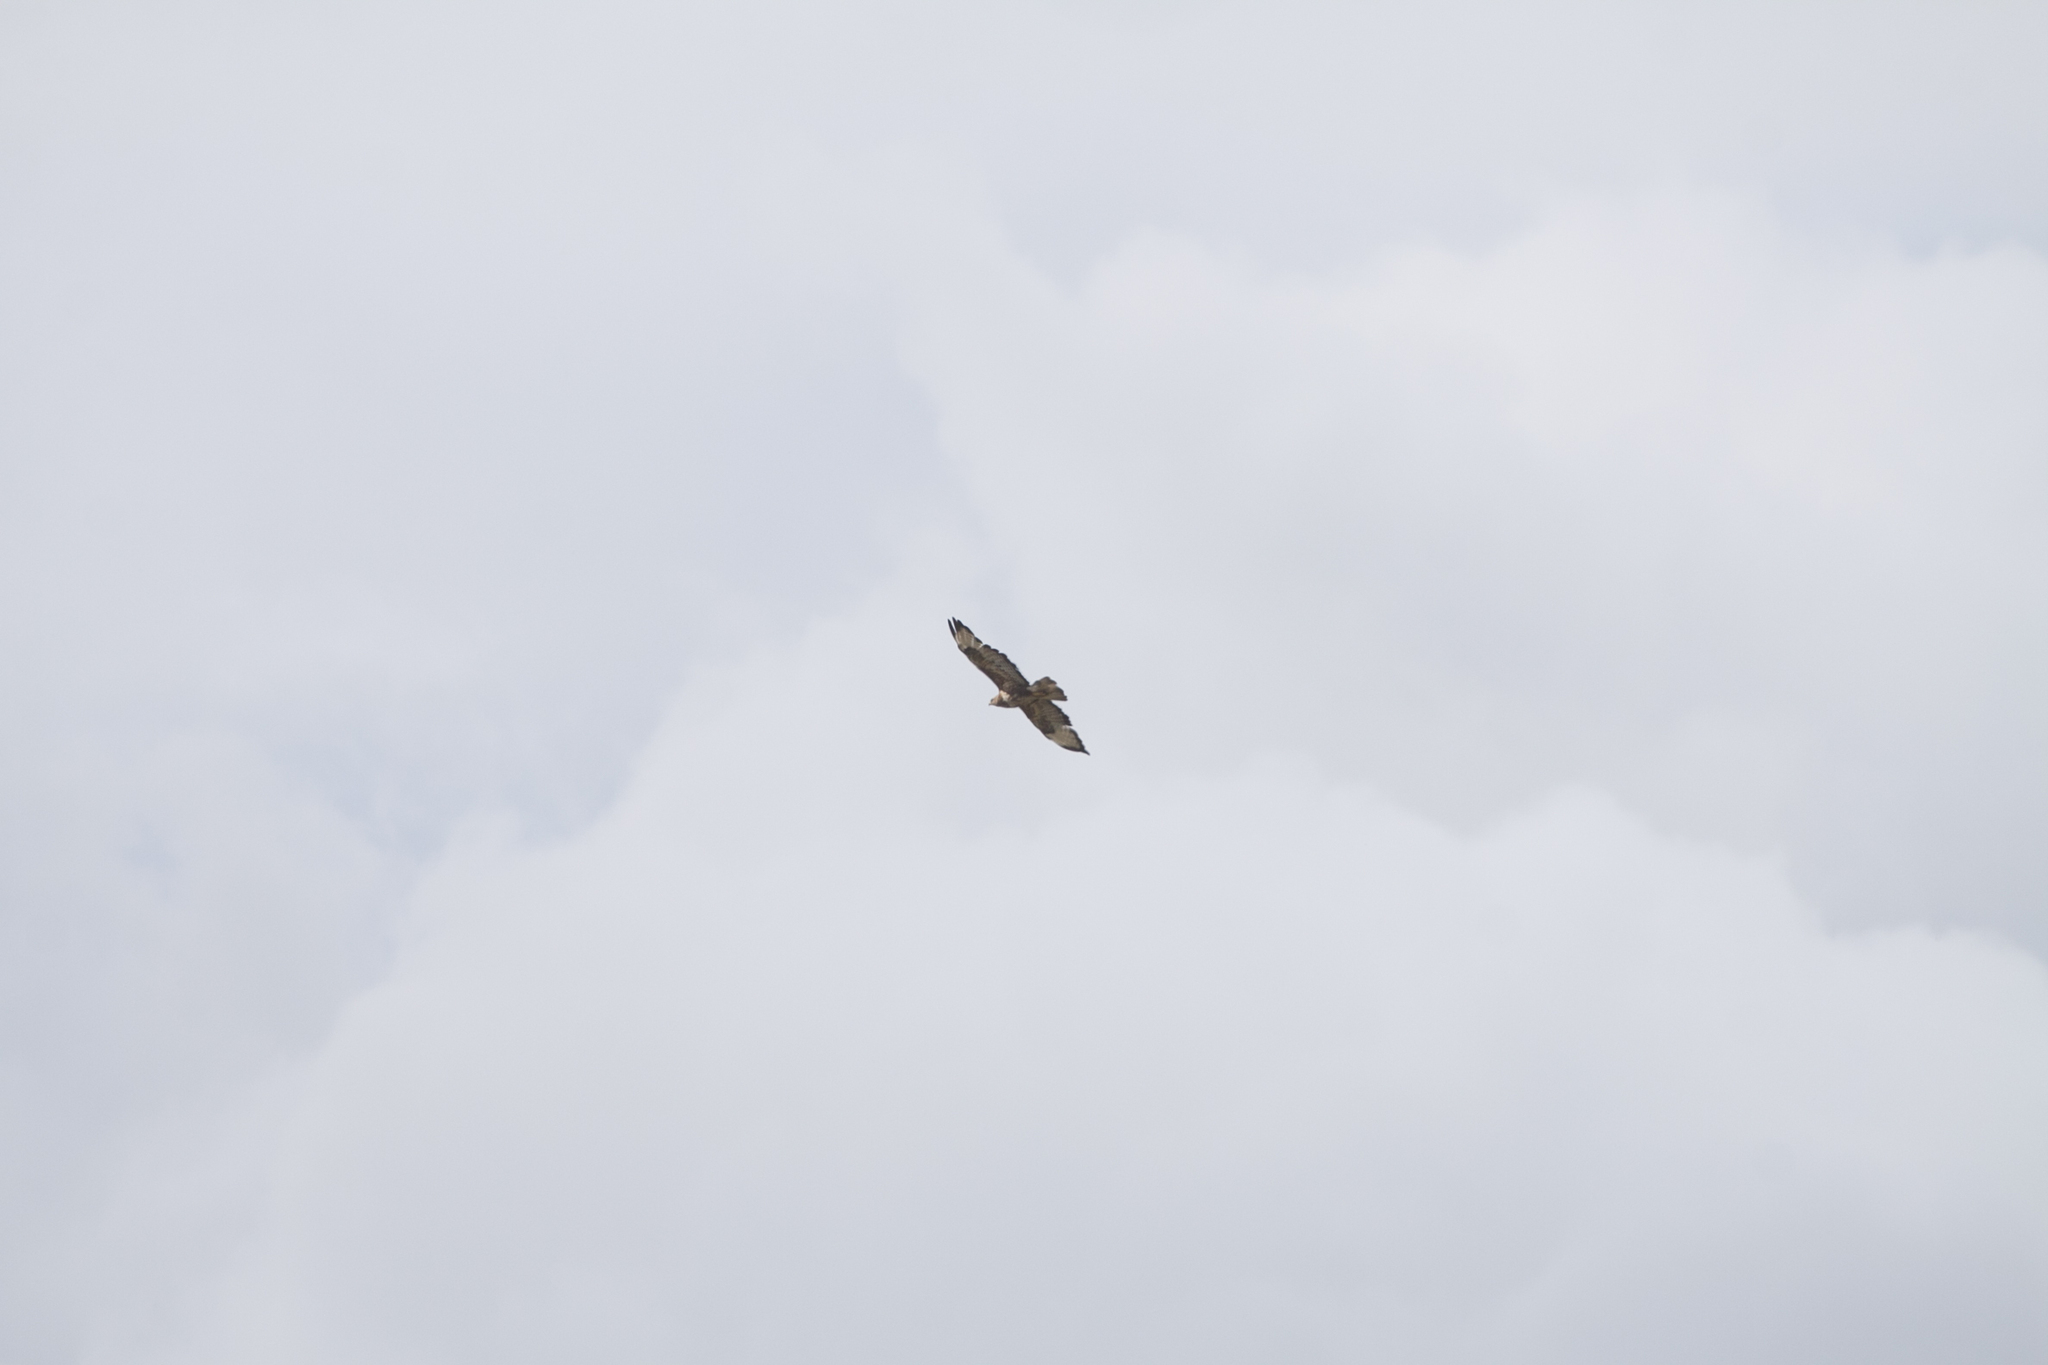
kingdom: Animalia
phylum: Chordata
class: Aves
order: Accipitriformes
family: Accipitridae
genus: Buteo
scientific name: Buteo buteo
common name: Common buzzard
